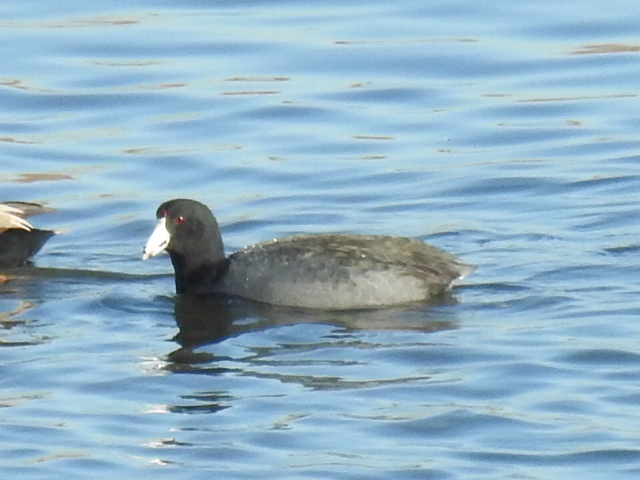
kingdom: Animalia
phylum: Chordata
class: Aves
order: Gruiformes
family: Rallidae
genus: Fulica
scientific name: Fulica americana
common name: American coot
